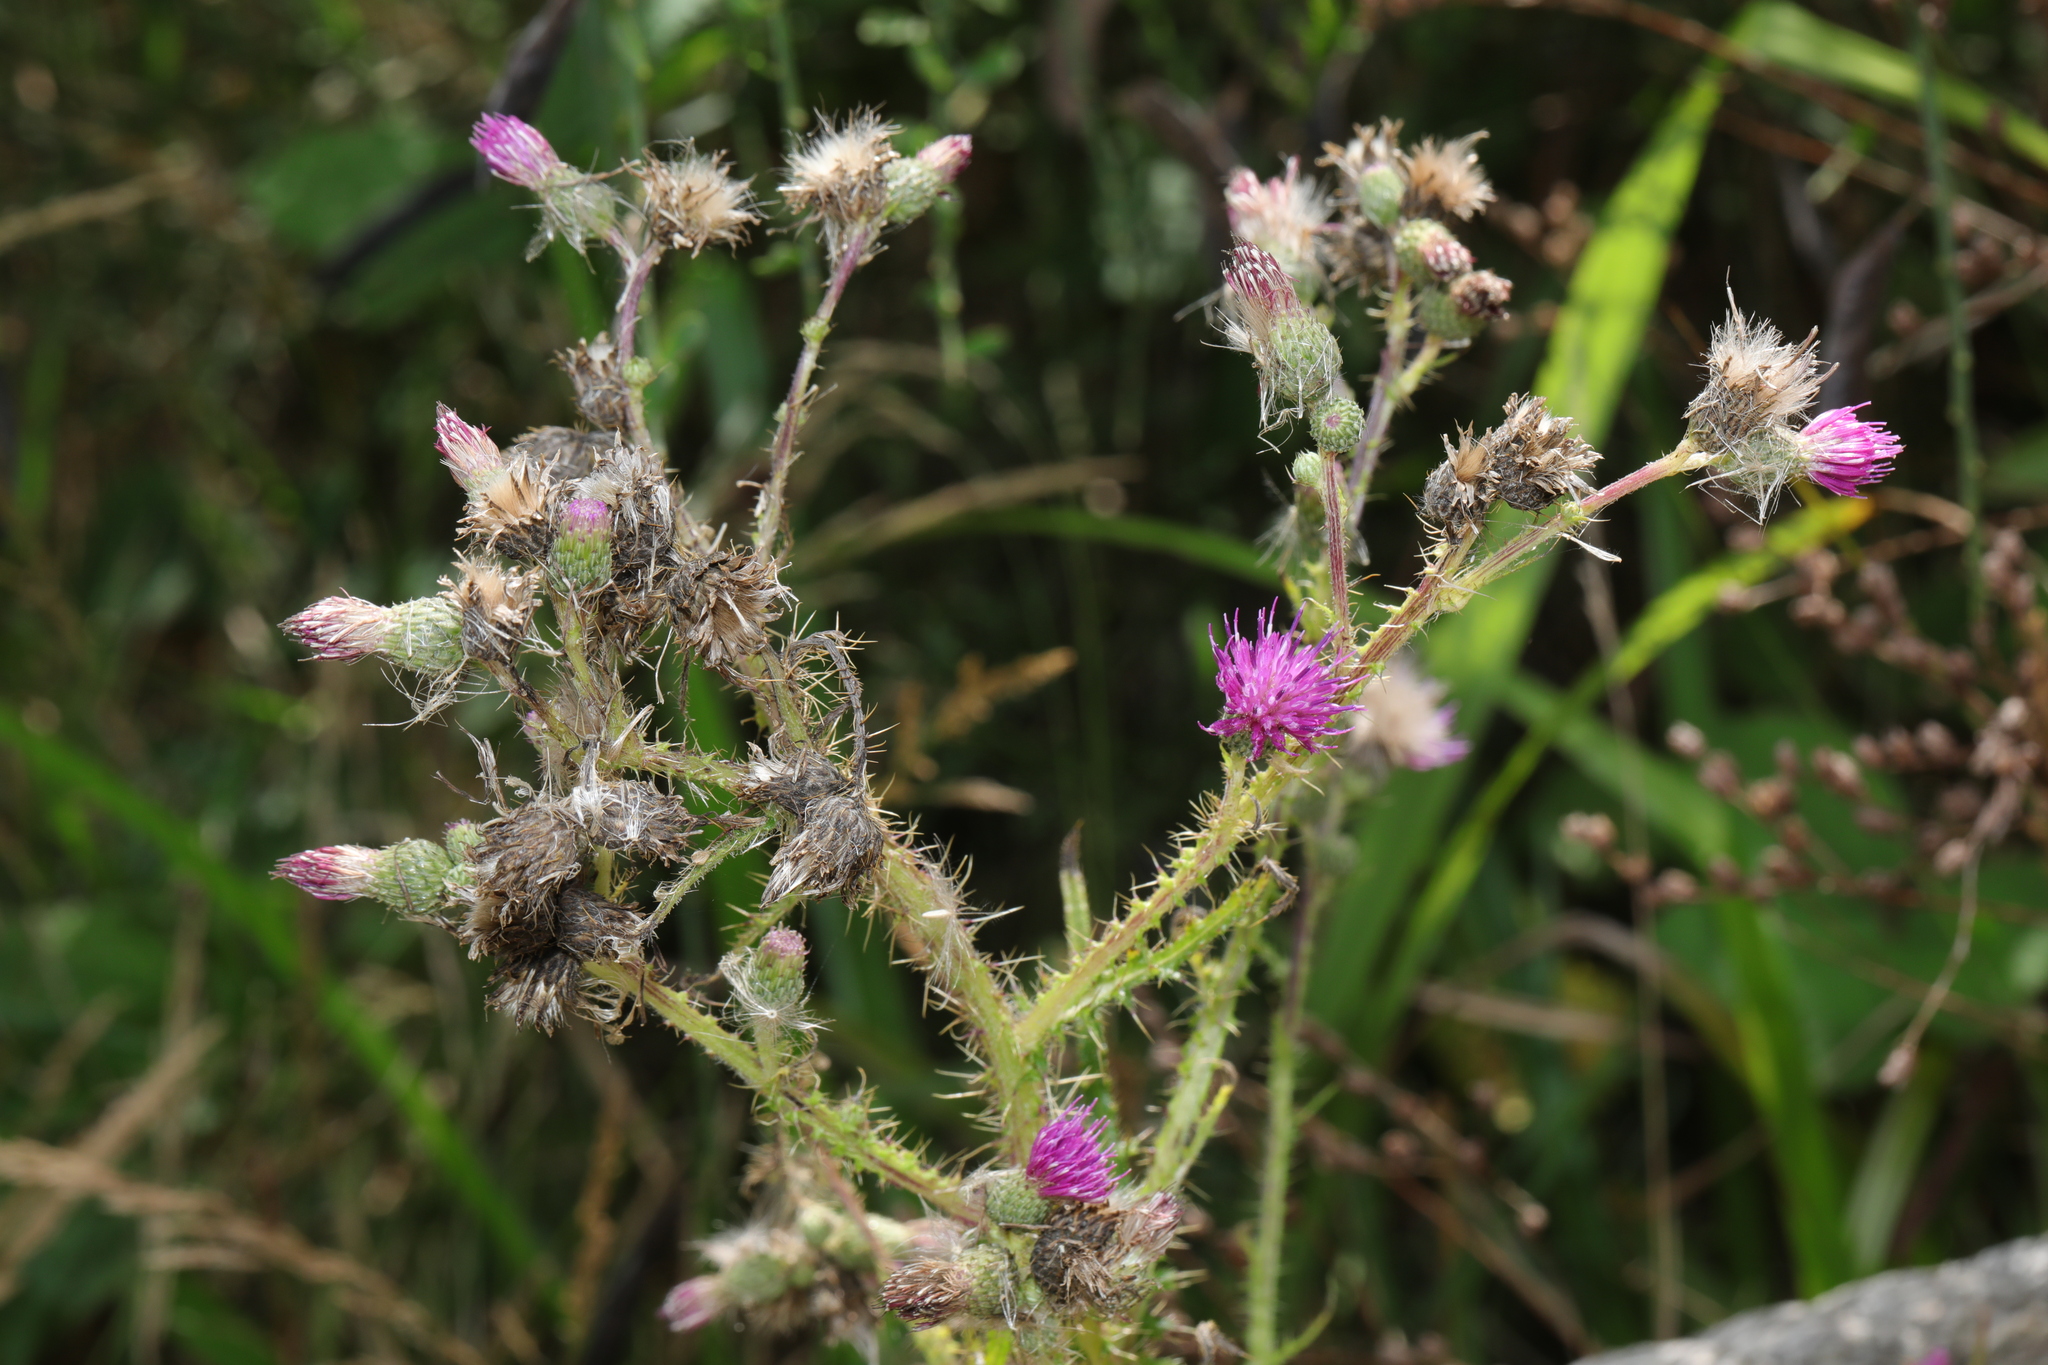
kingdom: Plantae
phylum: Tracheophyta
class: Magnoliopsida
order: Asterales
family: Asteraceae
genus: Cirsium
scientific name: Cirsium palustre
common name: Marsh thistle
